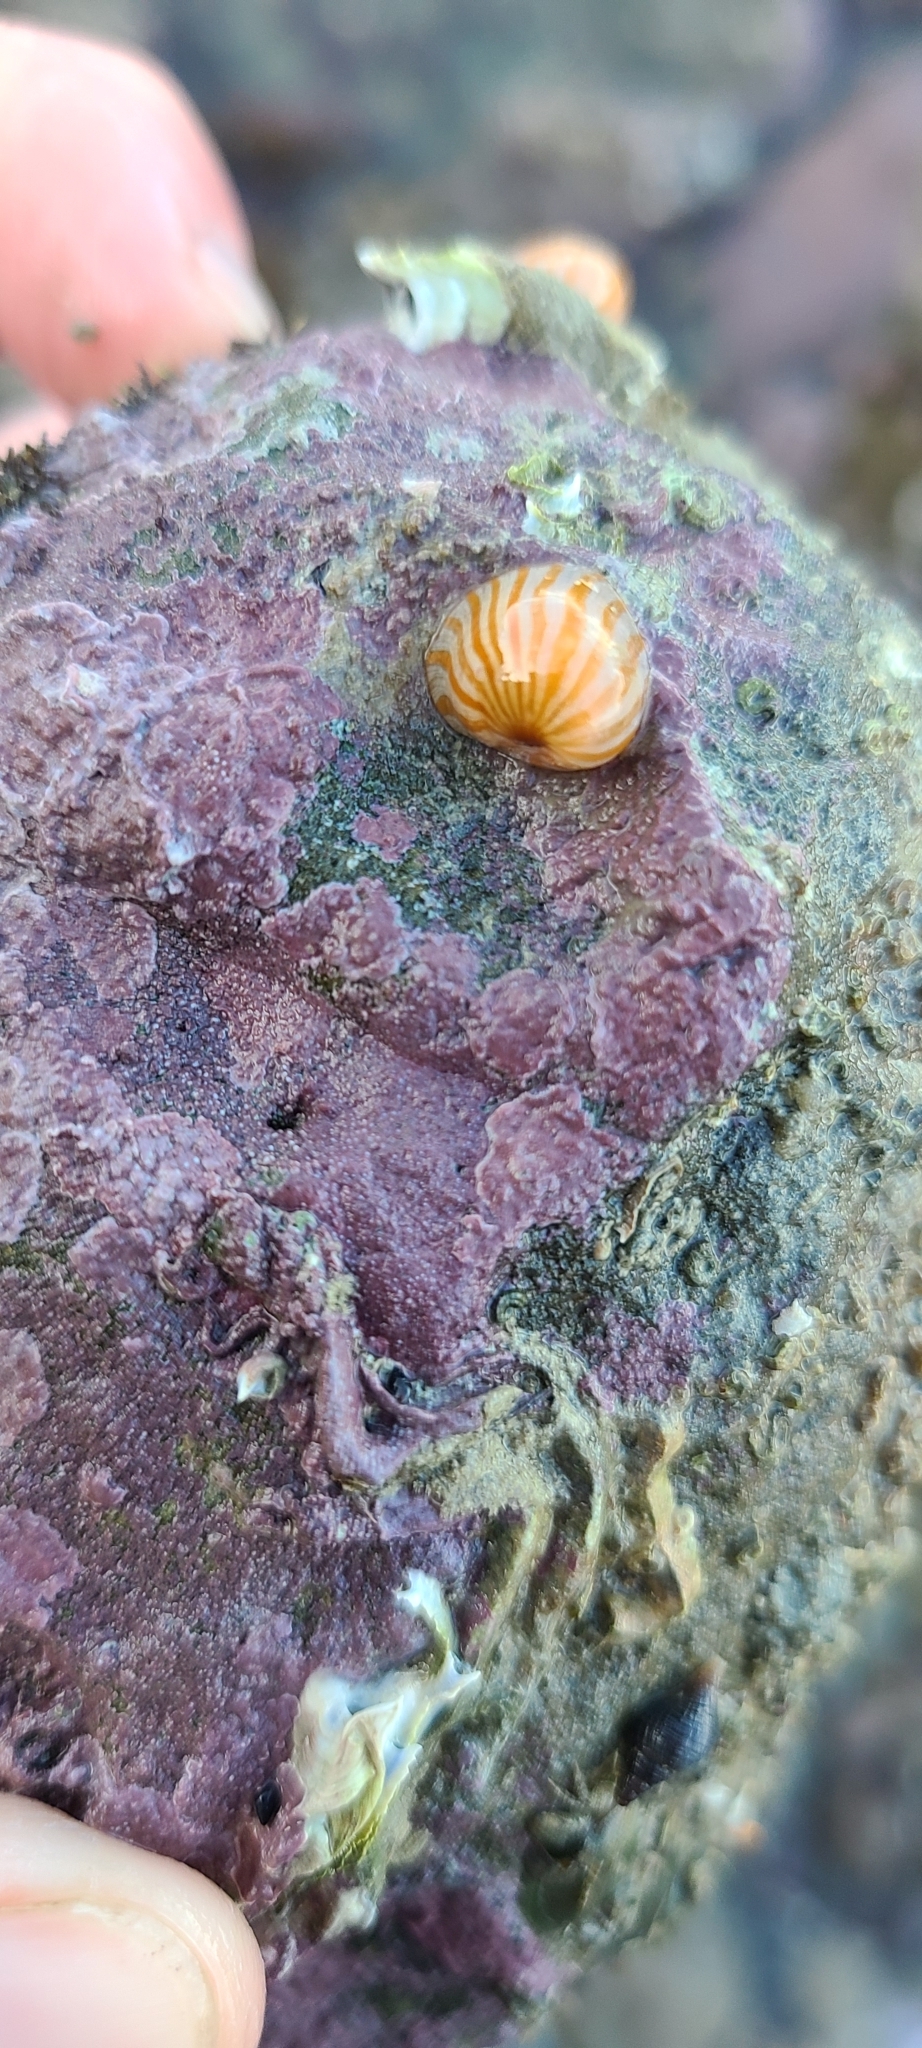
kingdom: Animalia
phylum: Cnidaria
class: Anthozoa
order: Actiniaria
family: Sagartiidae
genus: Anthothoe
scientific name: Anthothoe albocincta
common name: Orange striped anemone
